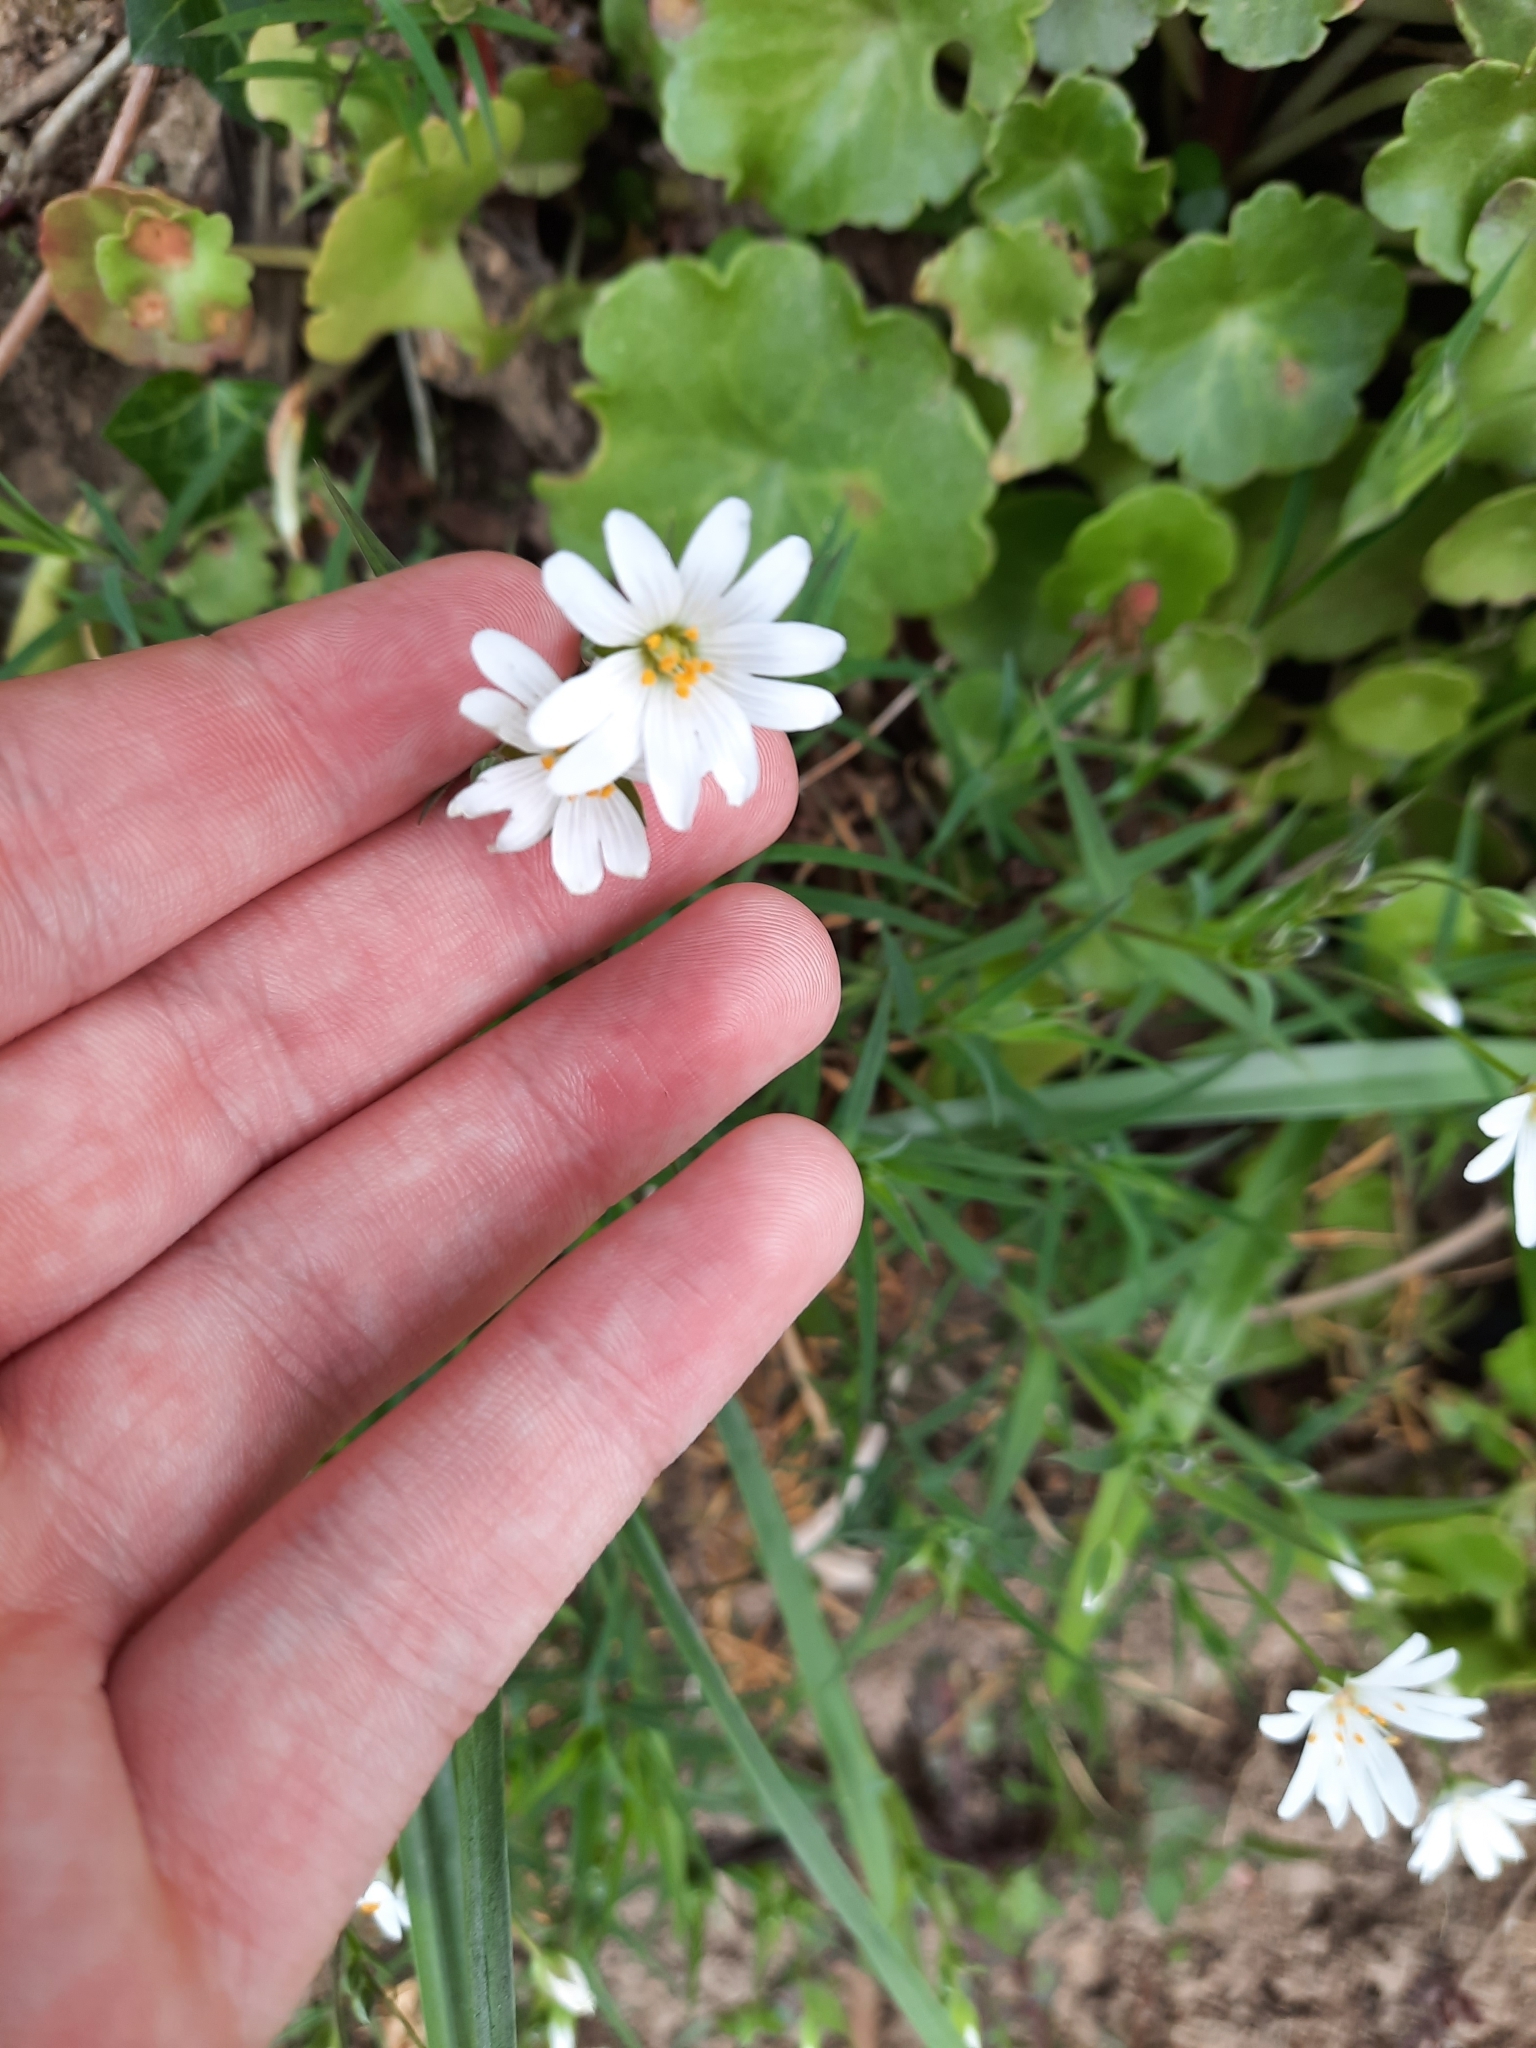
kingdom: Plantae
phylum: Tracheophyta
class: Magnoliopsida
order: Caryophyllales
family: Caryophyllaceae
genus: Rabelera
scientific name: Rabelera holostea
